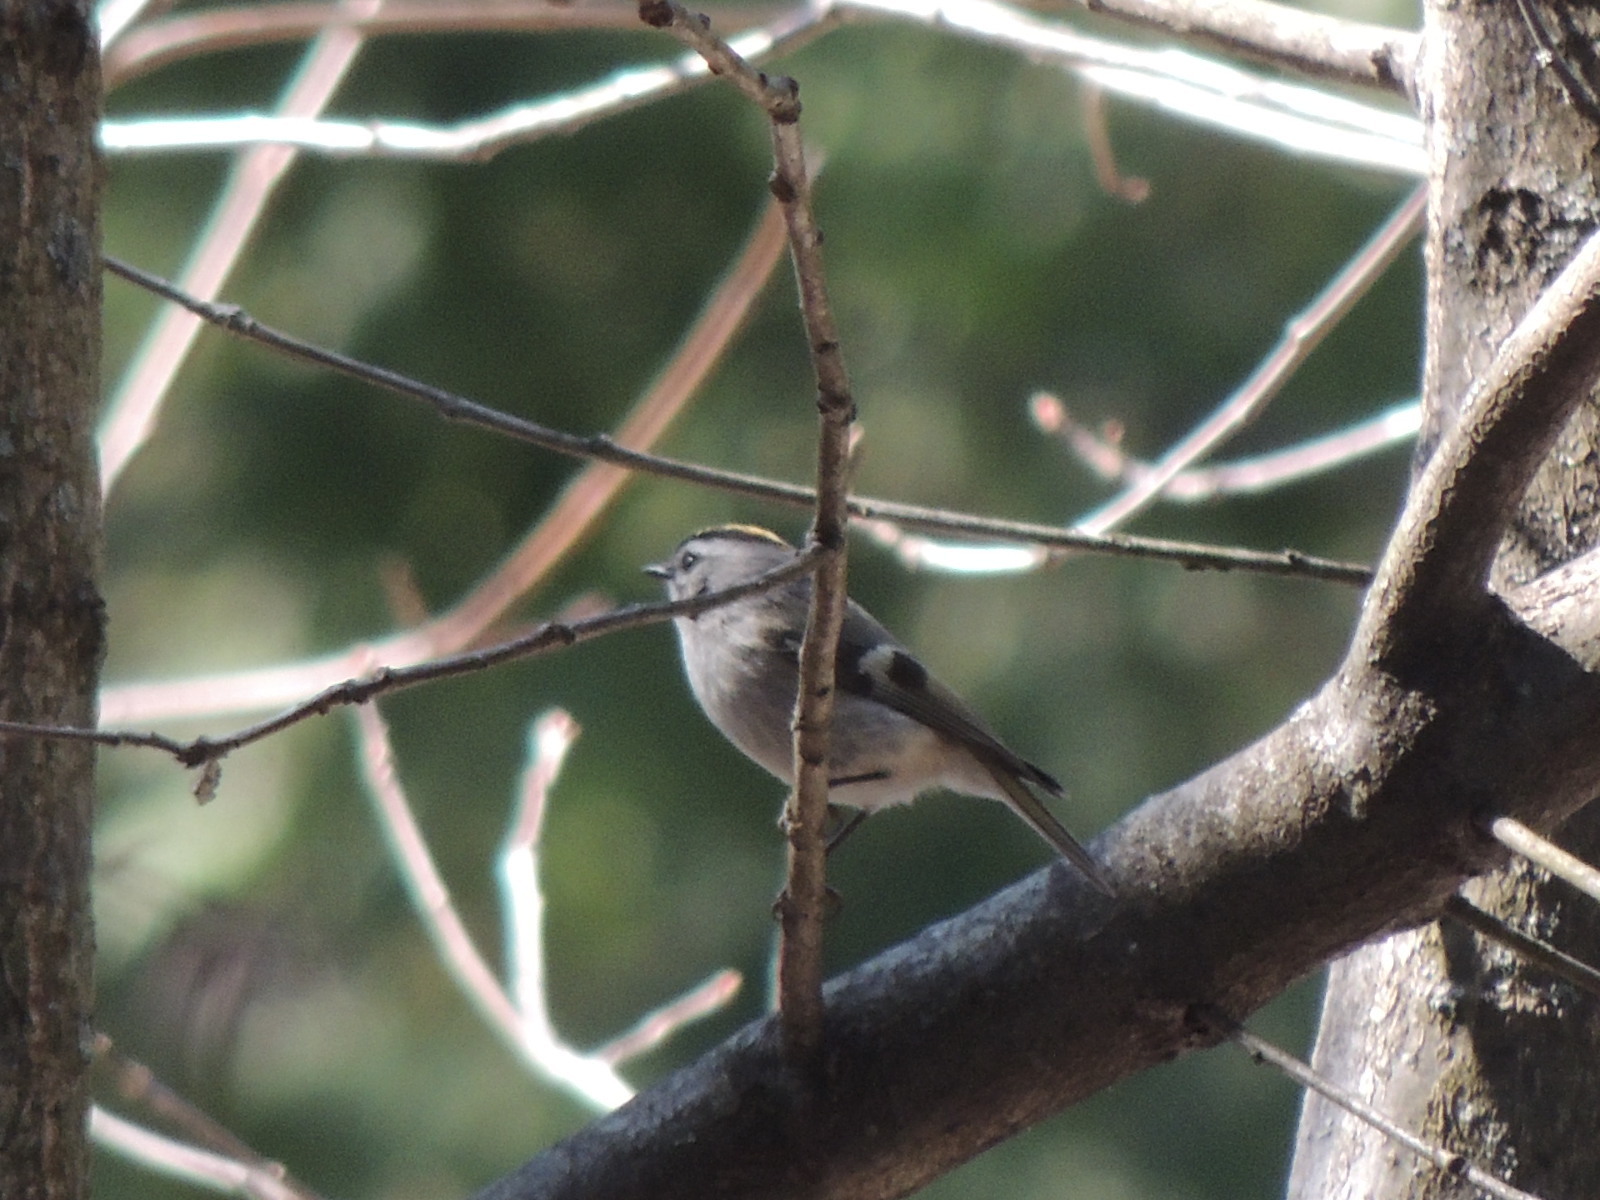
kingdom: Animalia
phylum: Chordata
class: Aves
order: Passeriformes
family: Regulidae
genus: Regulus
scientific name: Regulus satrapa
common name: Golden-crowned kinglet
